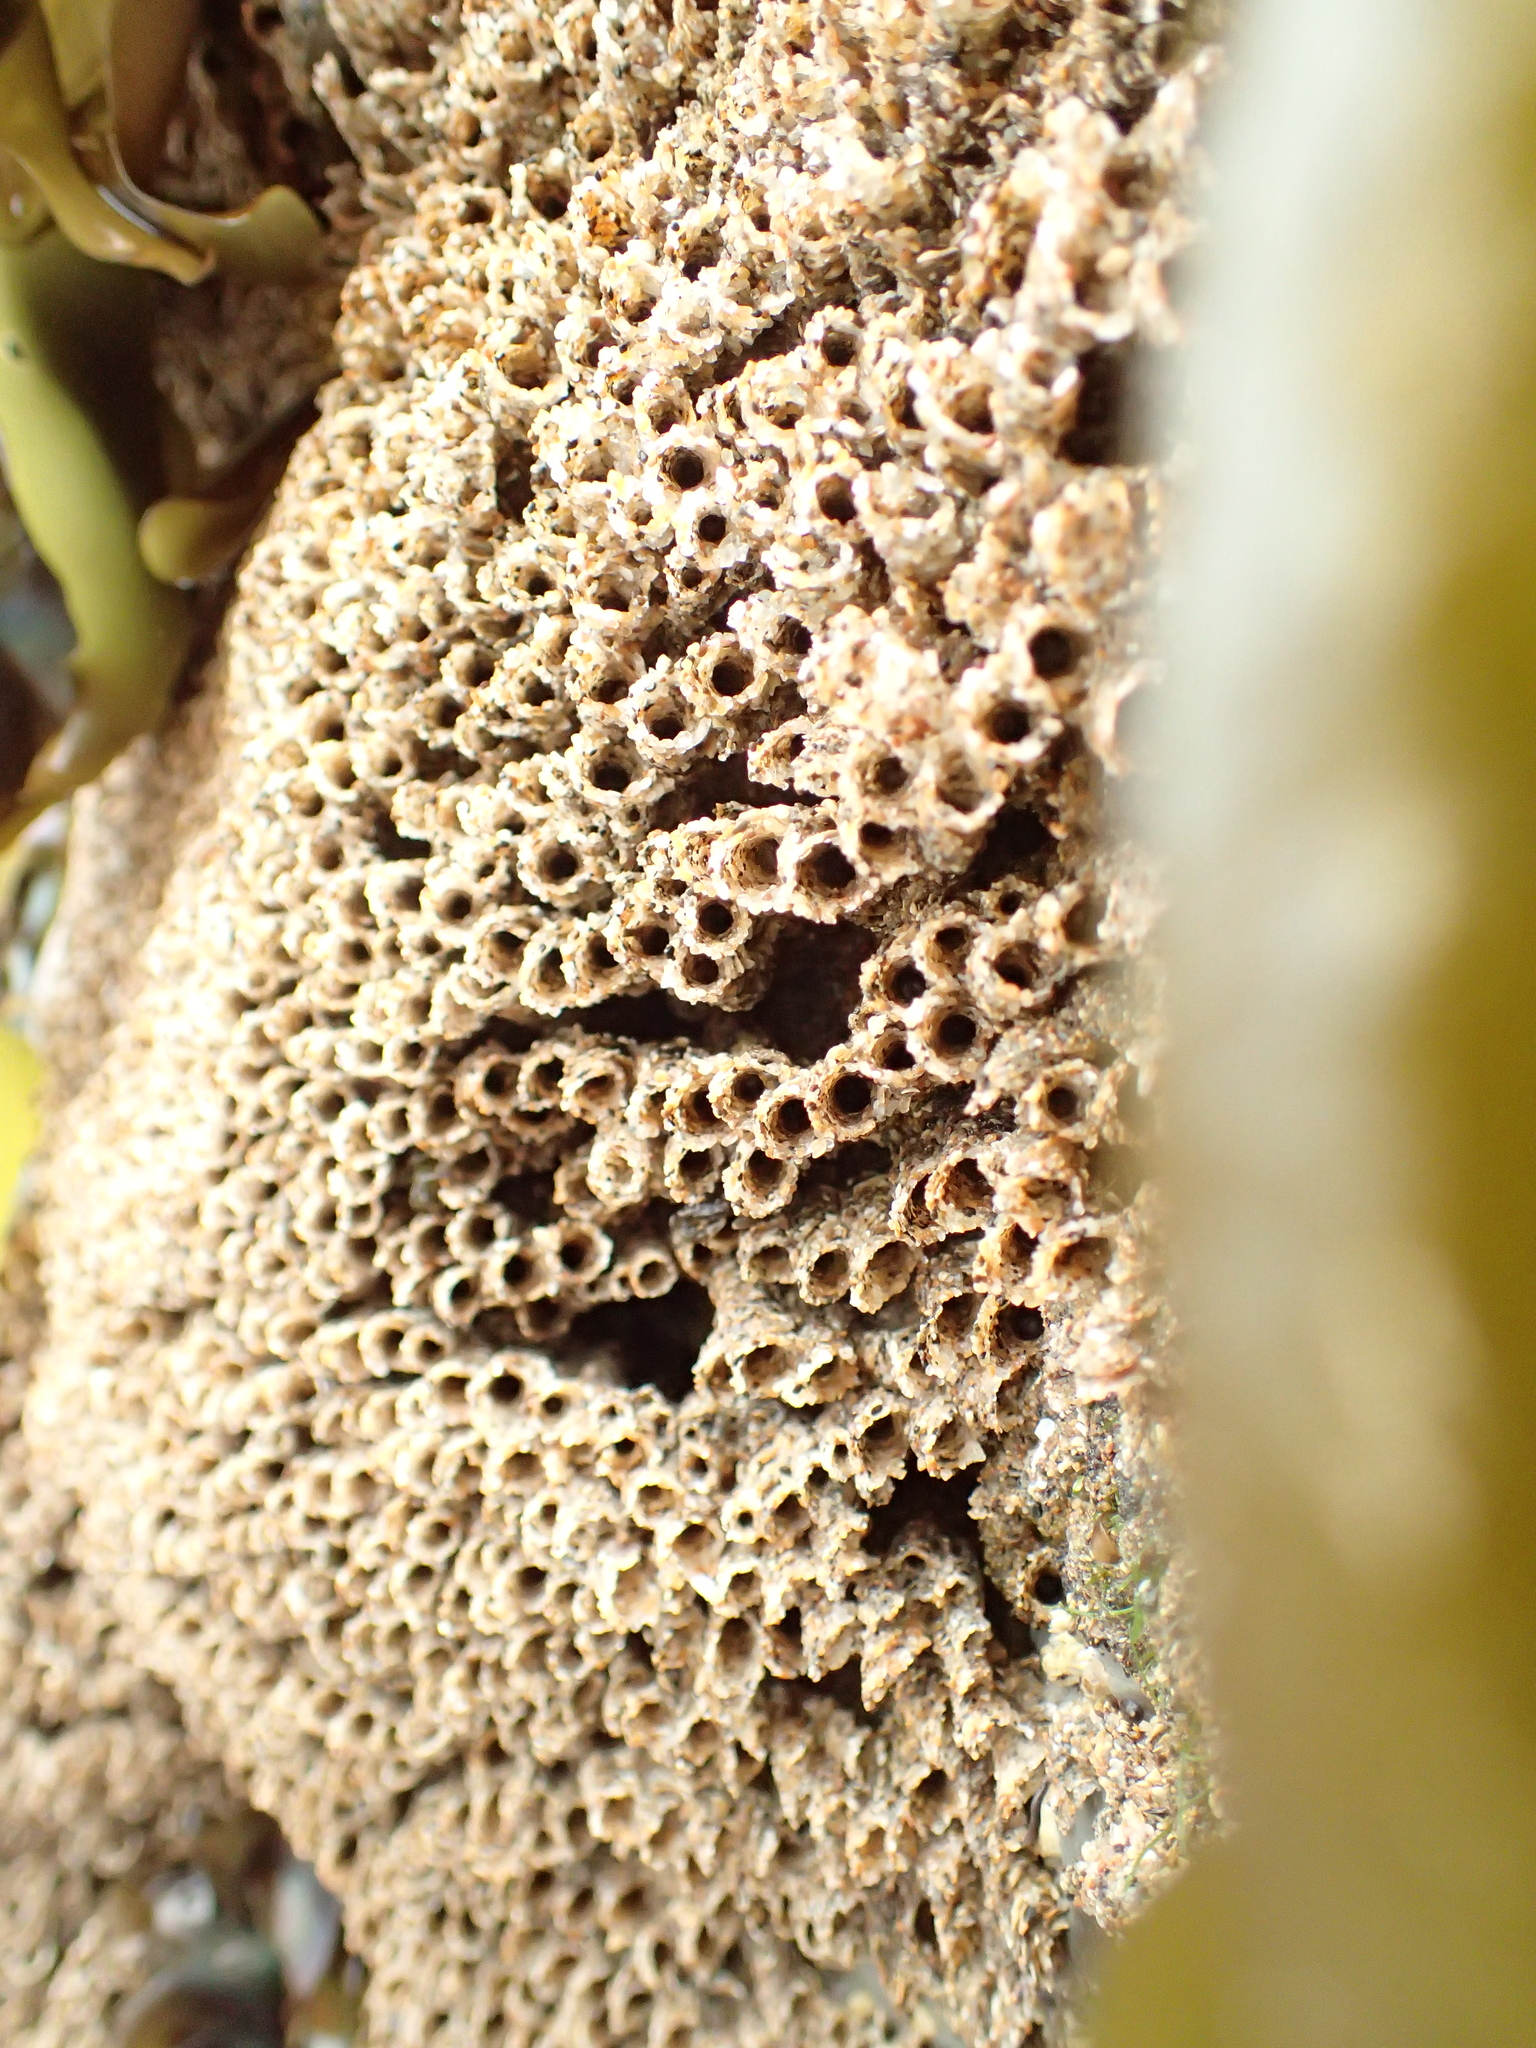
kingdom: Animalia
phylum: Annelida
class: Polychaeta
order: Sabellida
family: Sabellariidae
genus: Phragmatopoma
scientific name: Phragmatopoma californica
